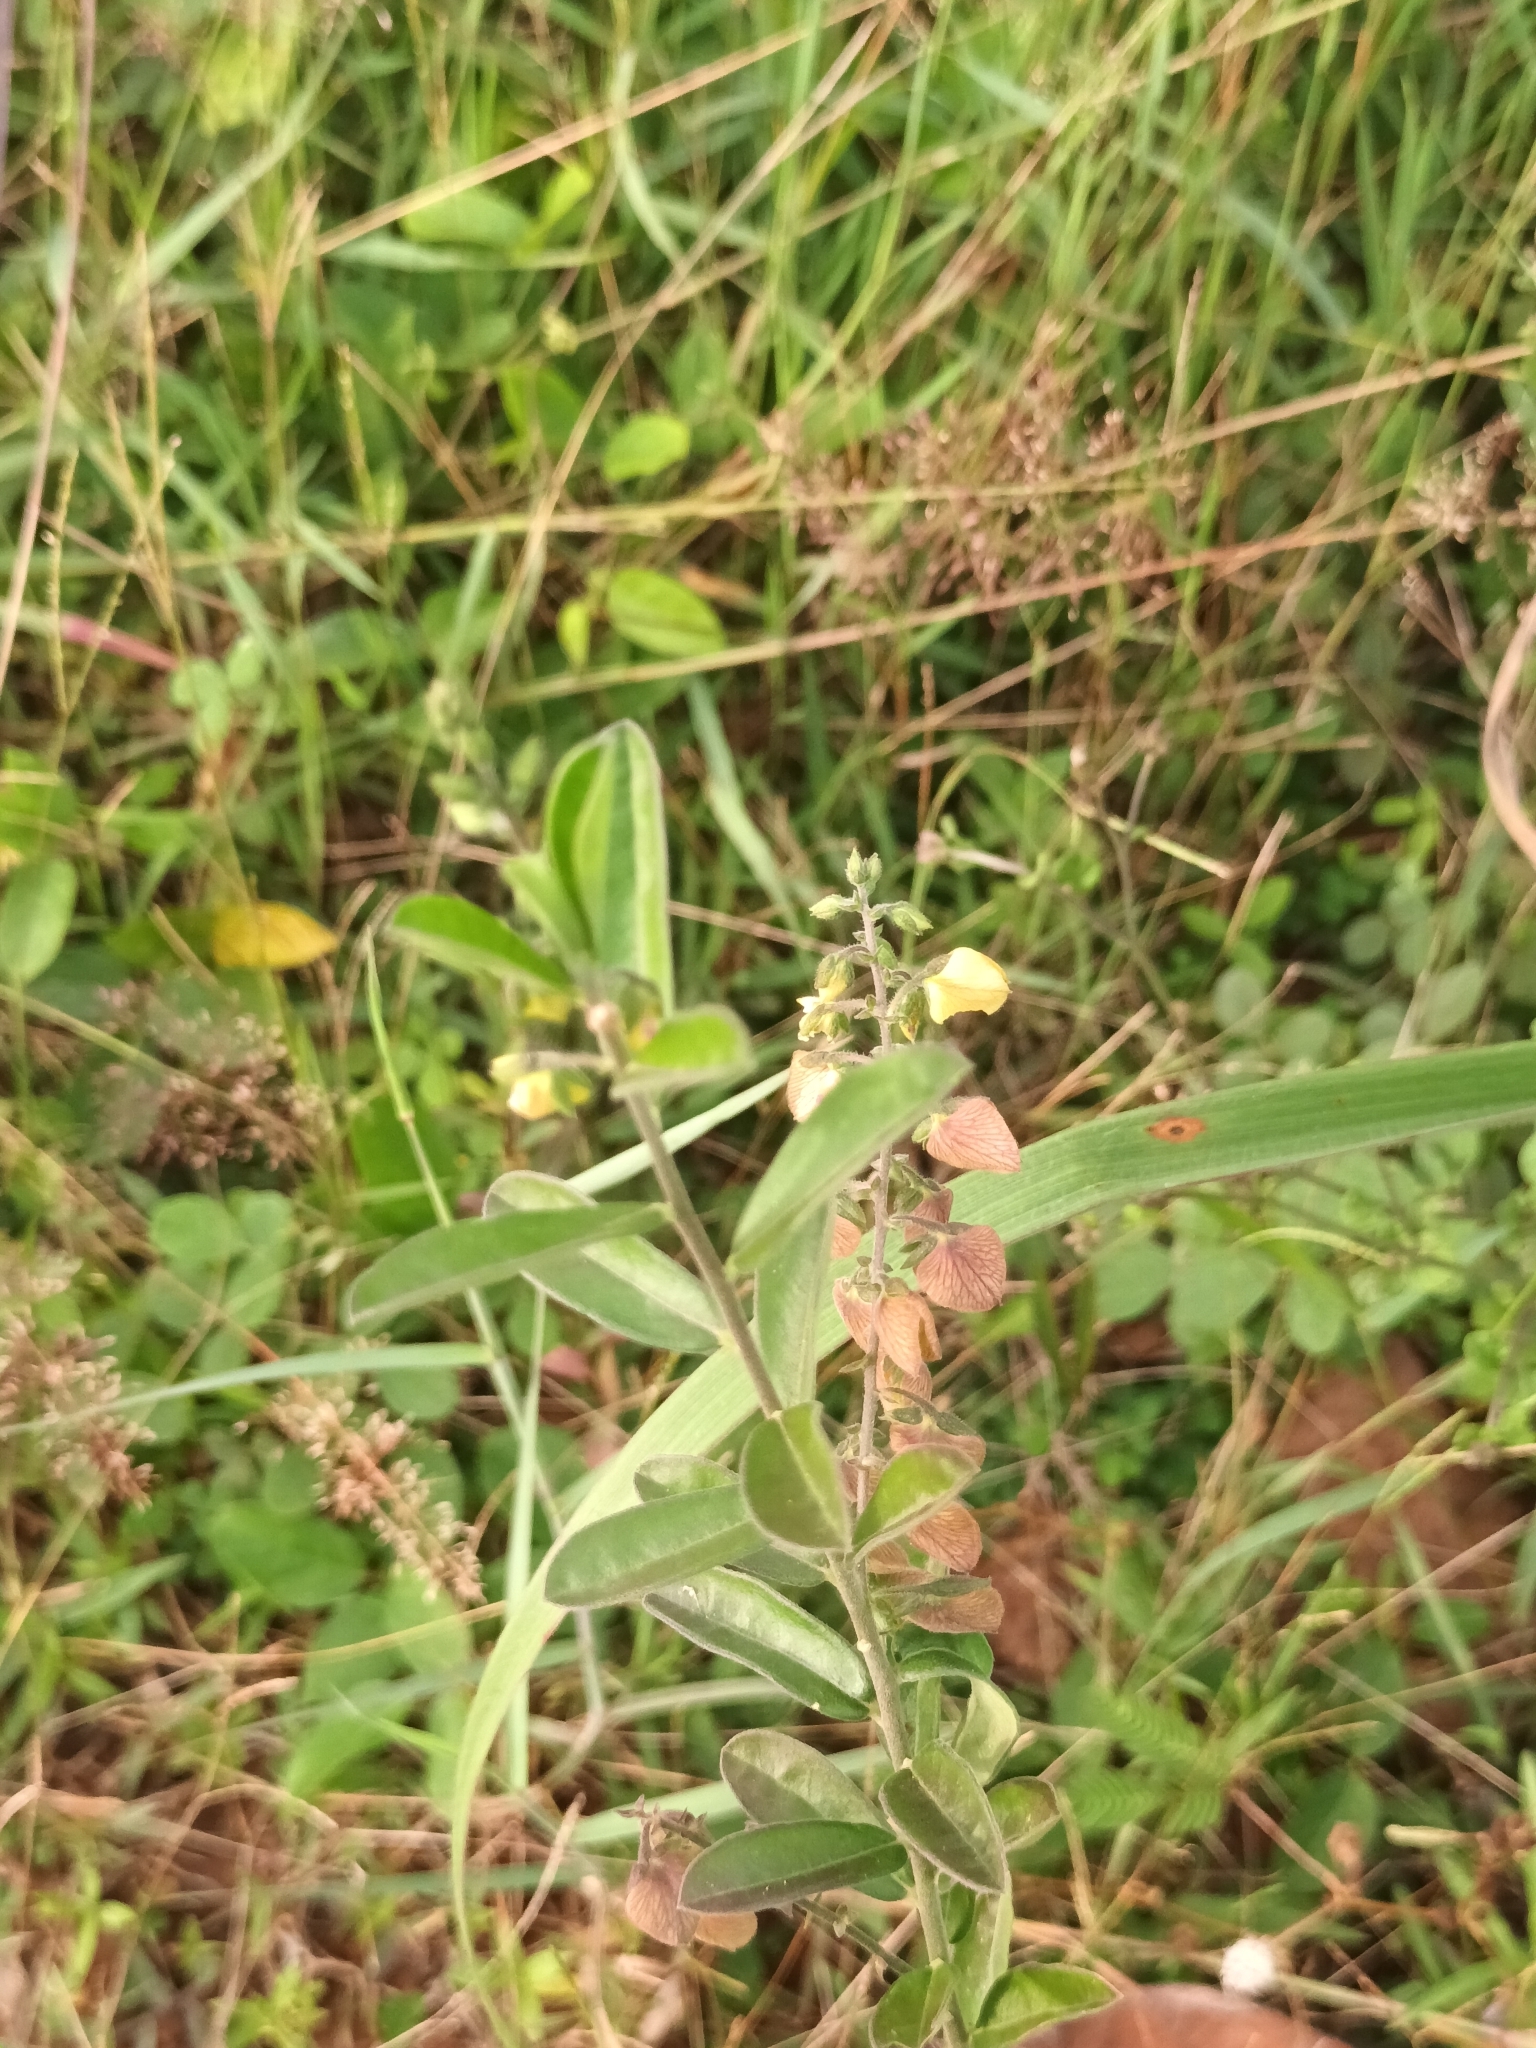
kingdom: Plantae
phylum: Tracheophyta
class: Magnoliopsida
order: Fabales
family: Polygalaceae
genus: Polygala
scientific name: Polygala javana
